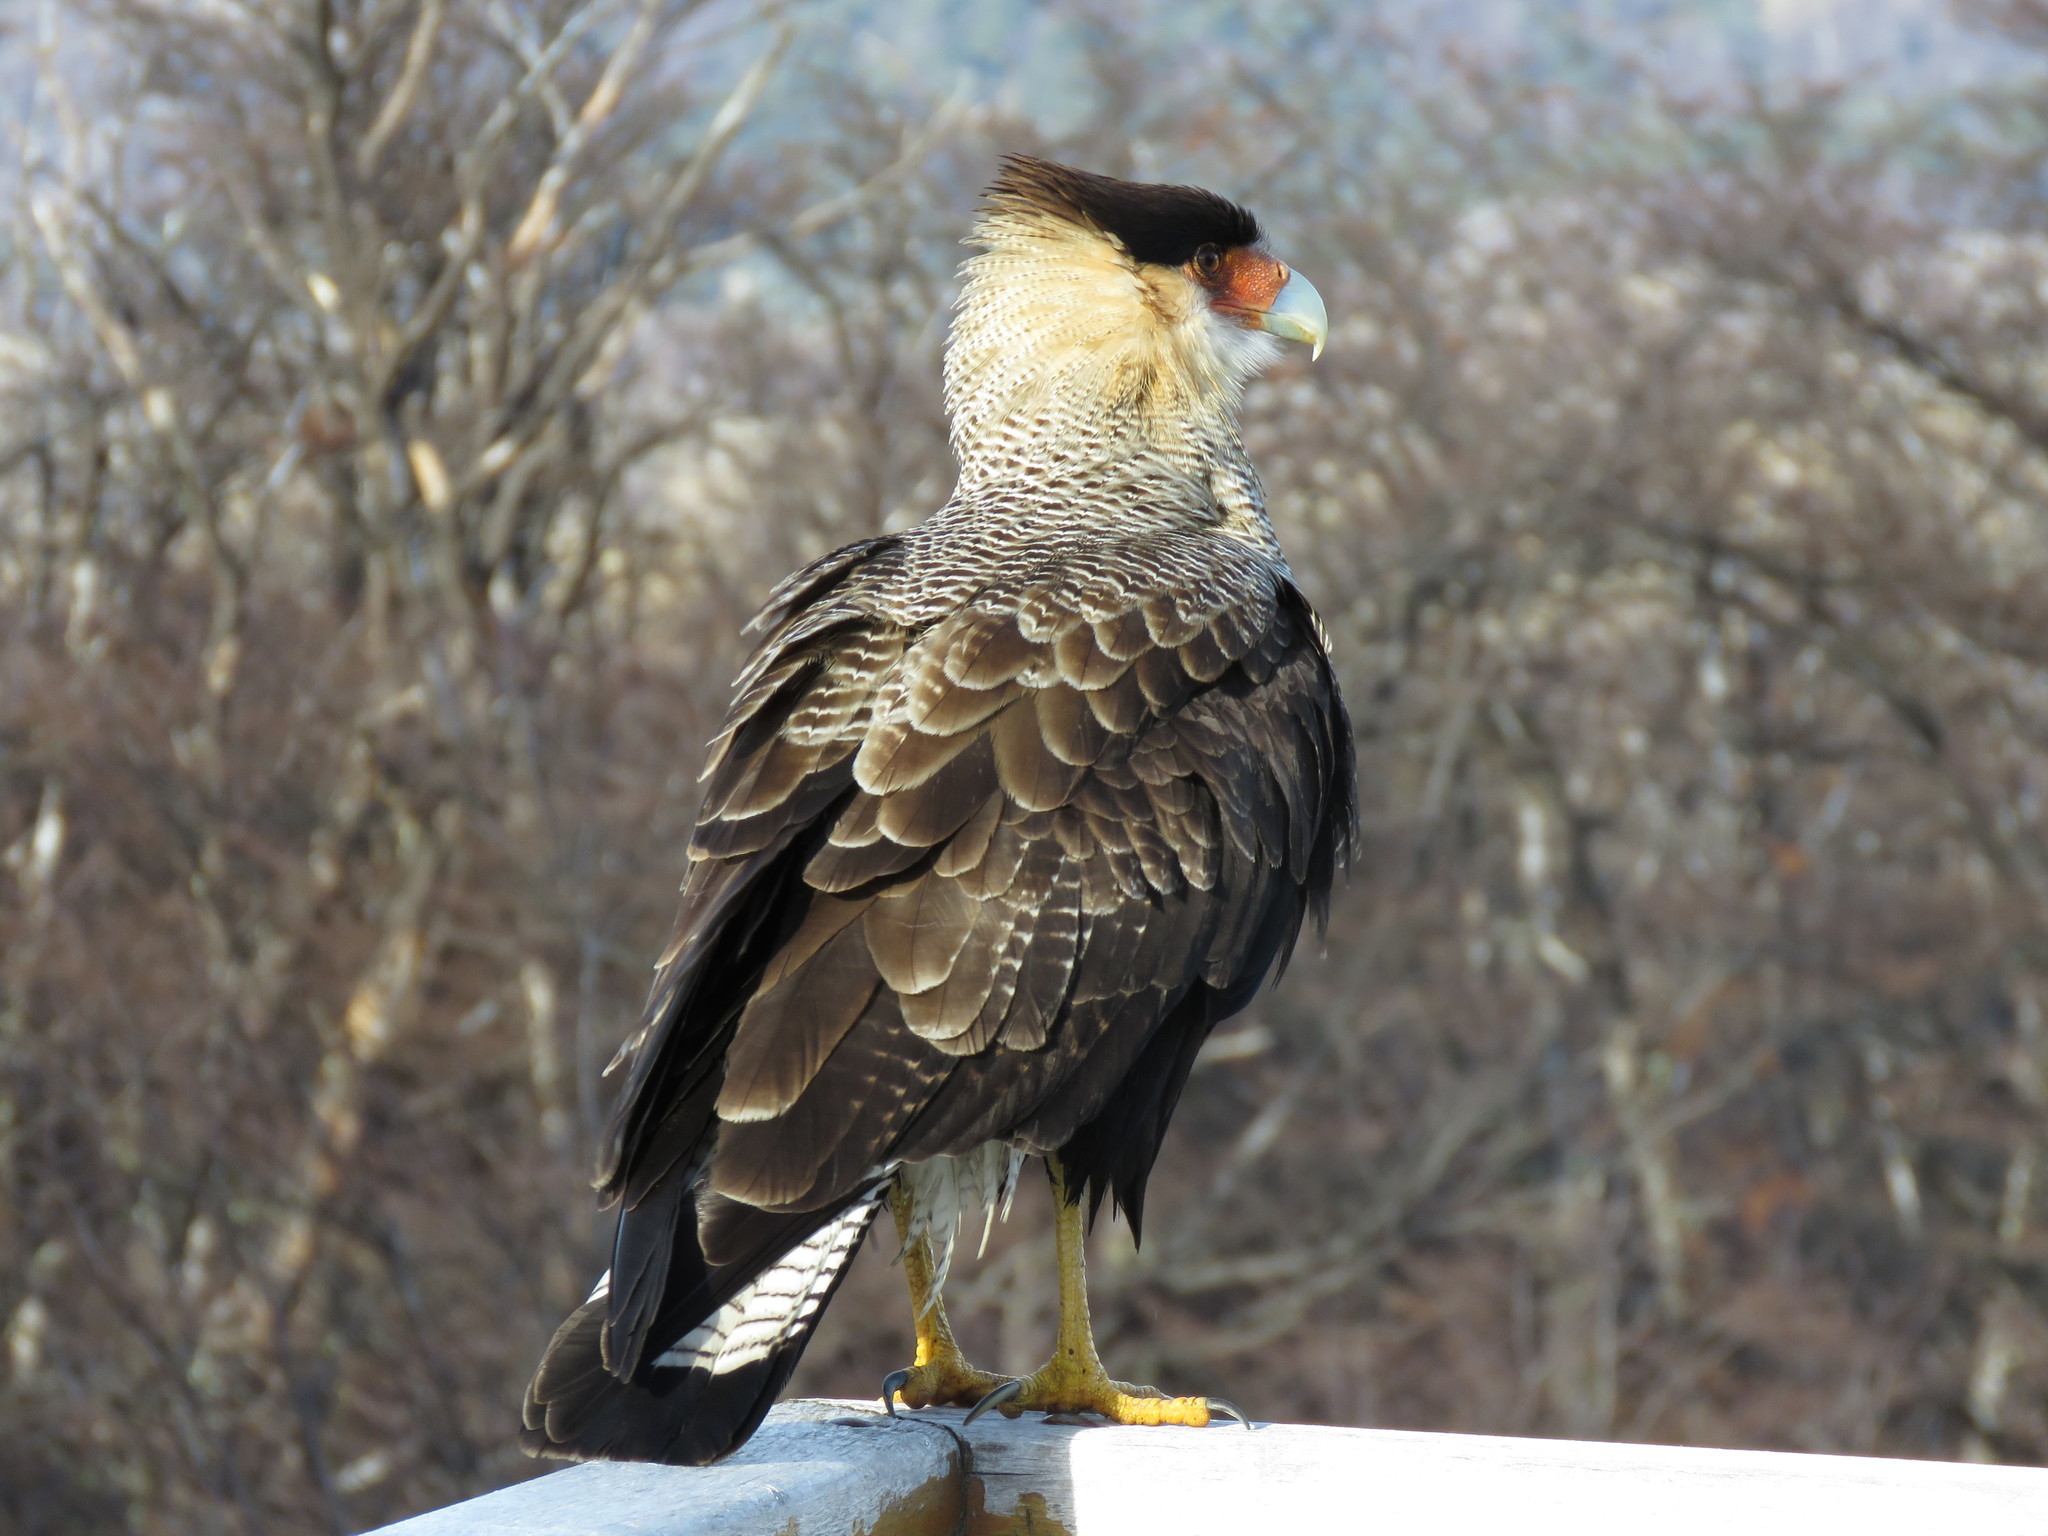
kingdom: Animalia
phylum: Chordata
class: Aves
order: Falconiformes
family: Falconidae
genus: Caracara
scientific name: Caracara plancus
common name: Southern caracara
